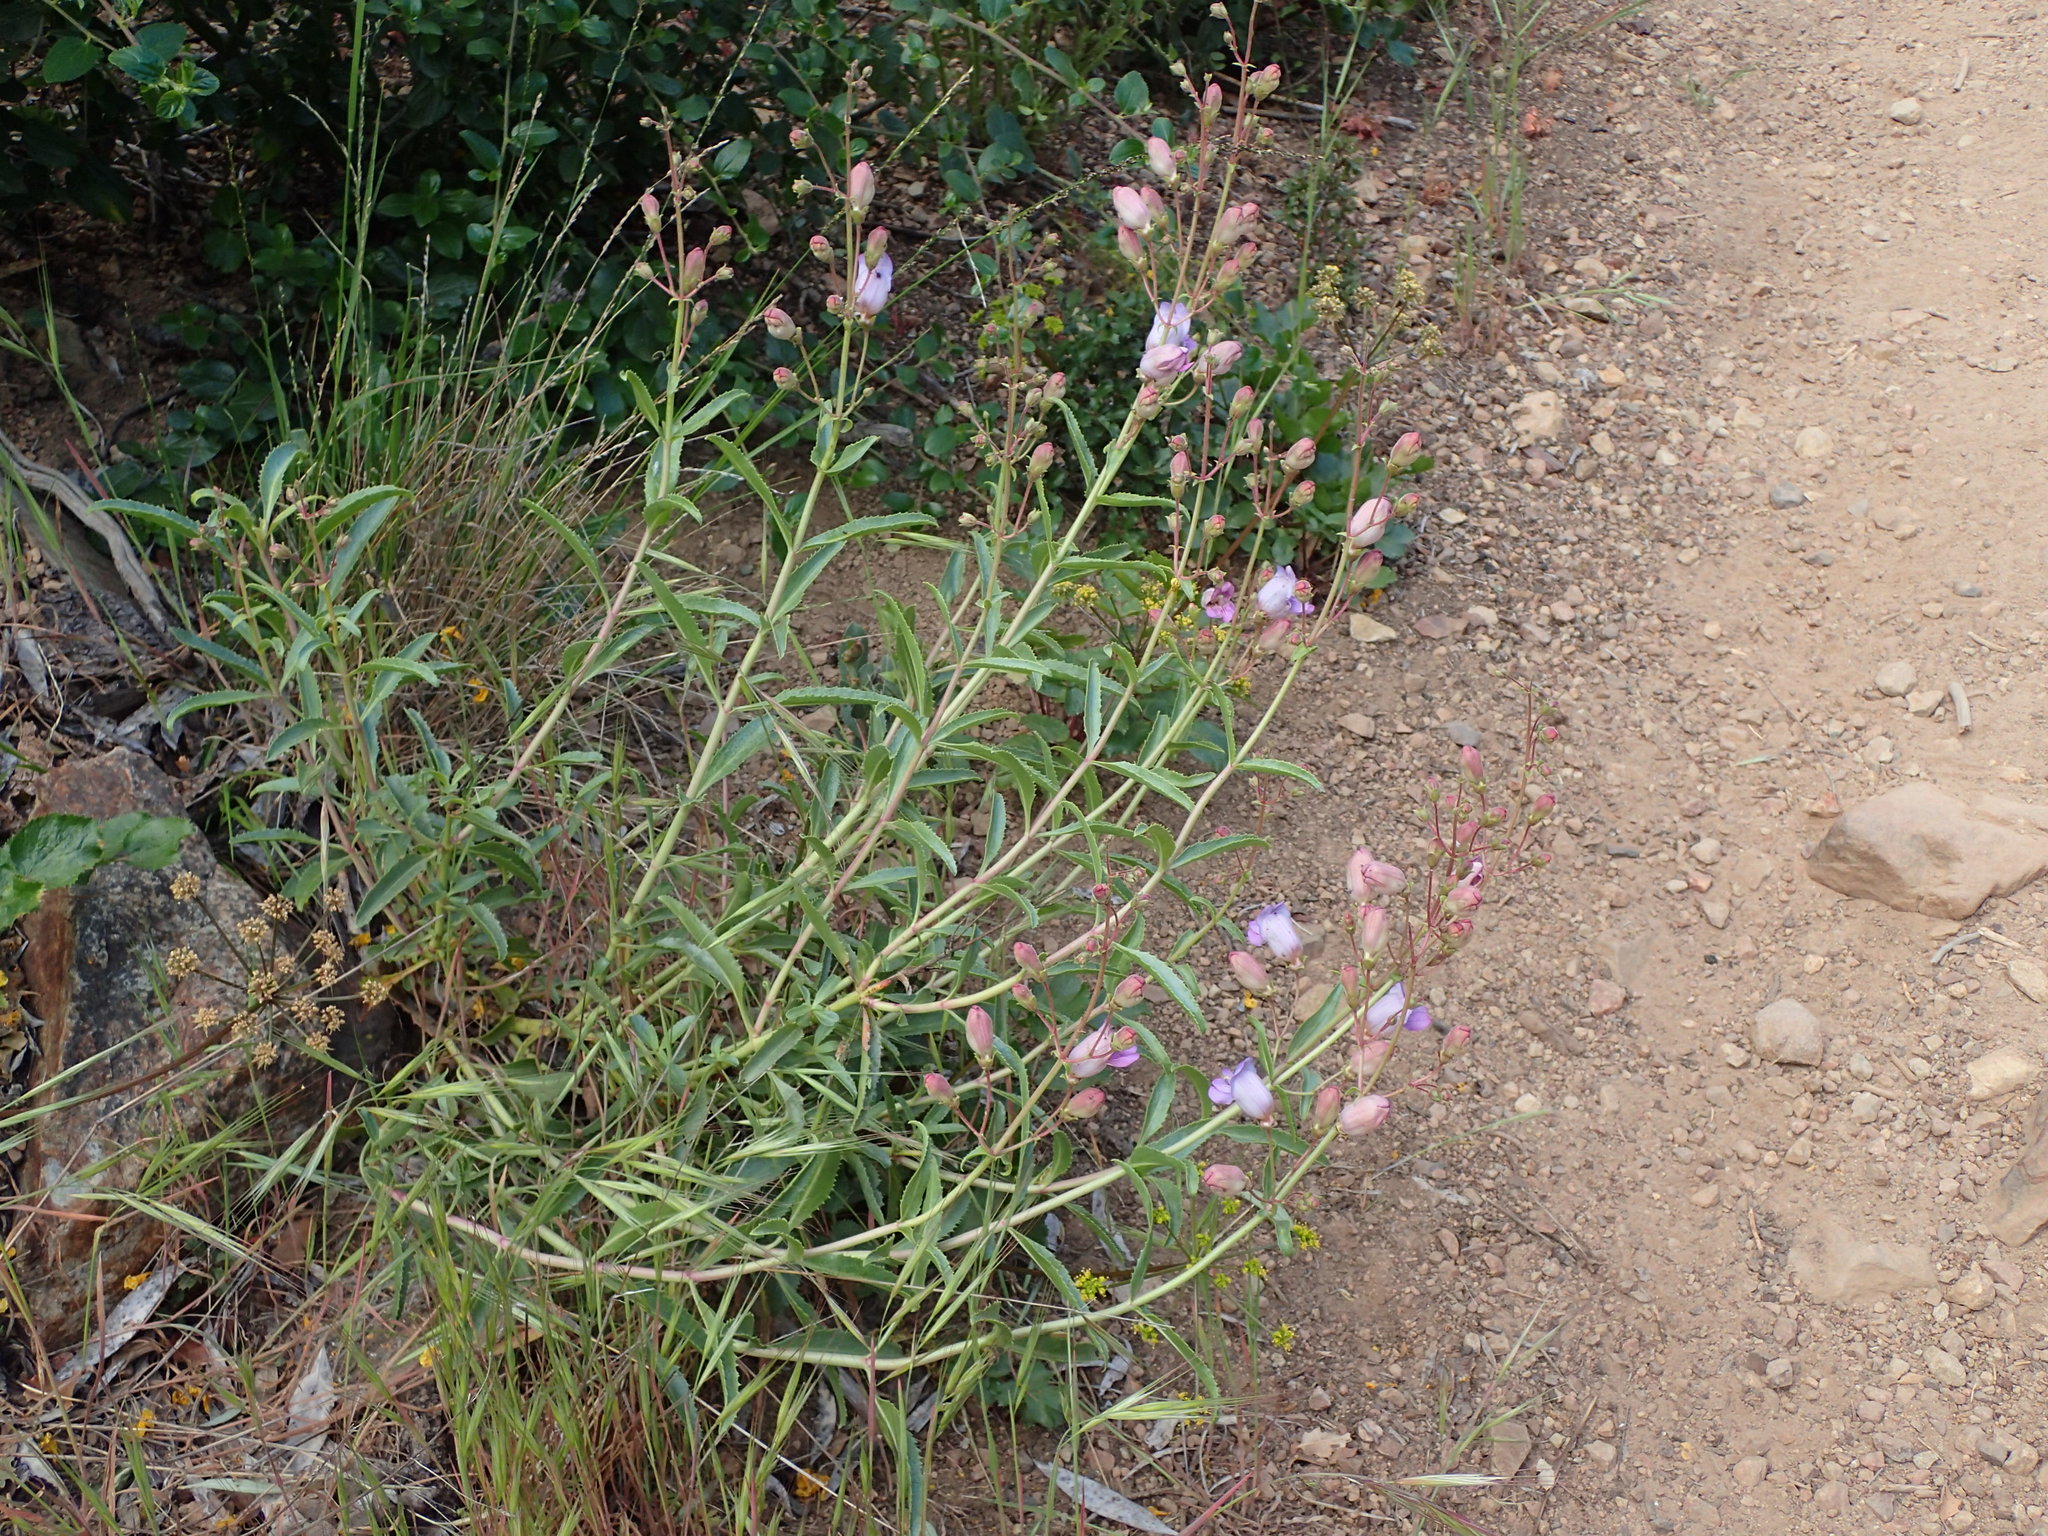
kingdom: Plantae
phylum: Tracheophyta
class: Magnoliopsida
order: Lamiales
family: Plantaginaceae
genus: Penstemon
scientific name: Penstemon grinnellii
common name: Grinnell's beardtongue
